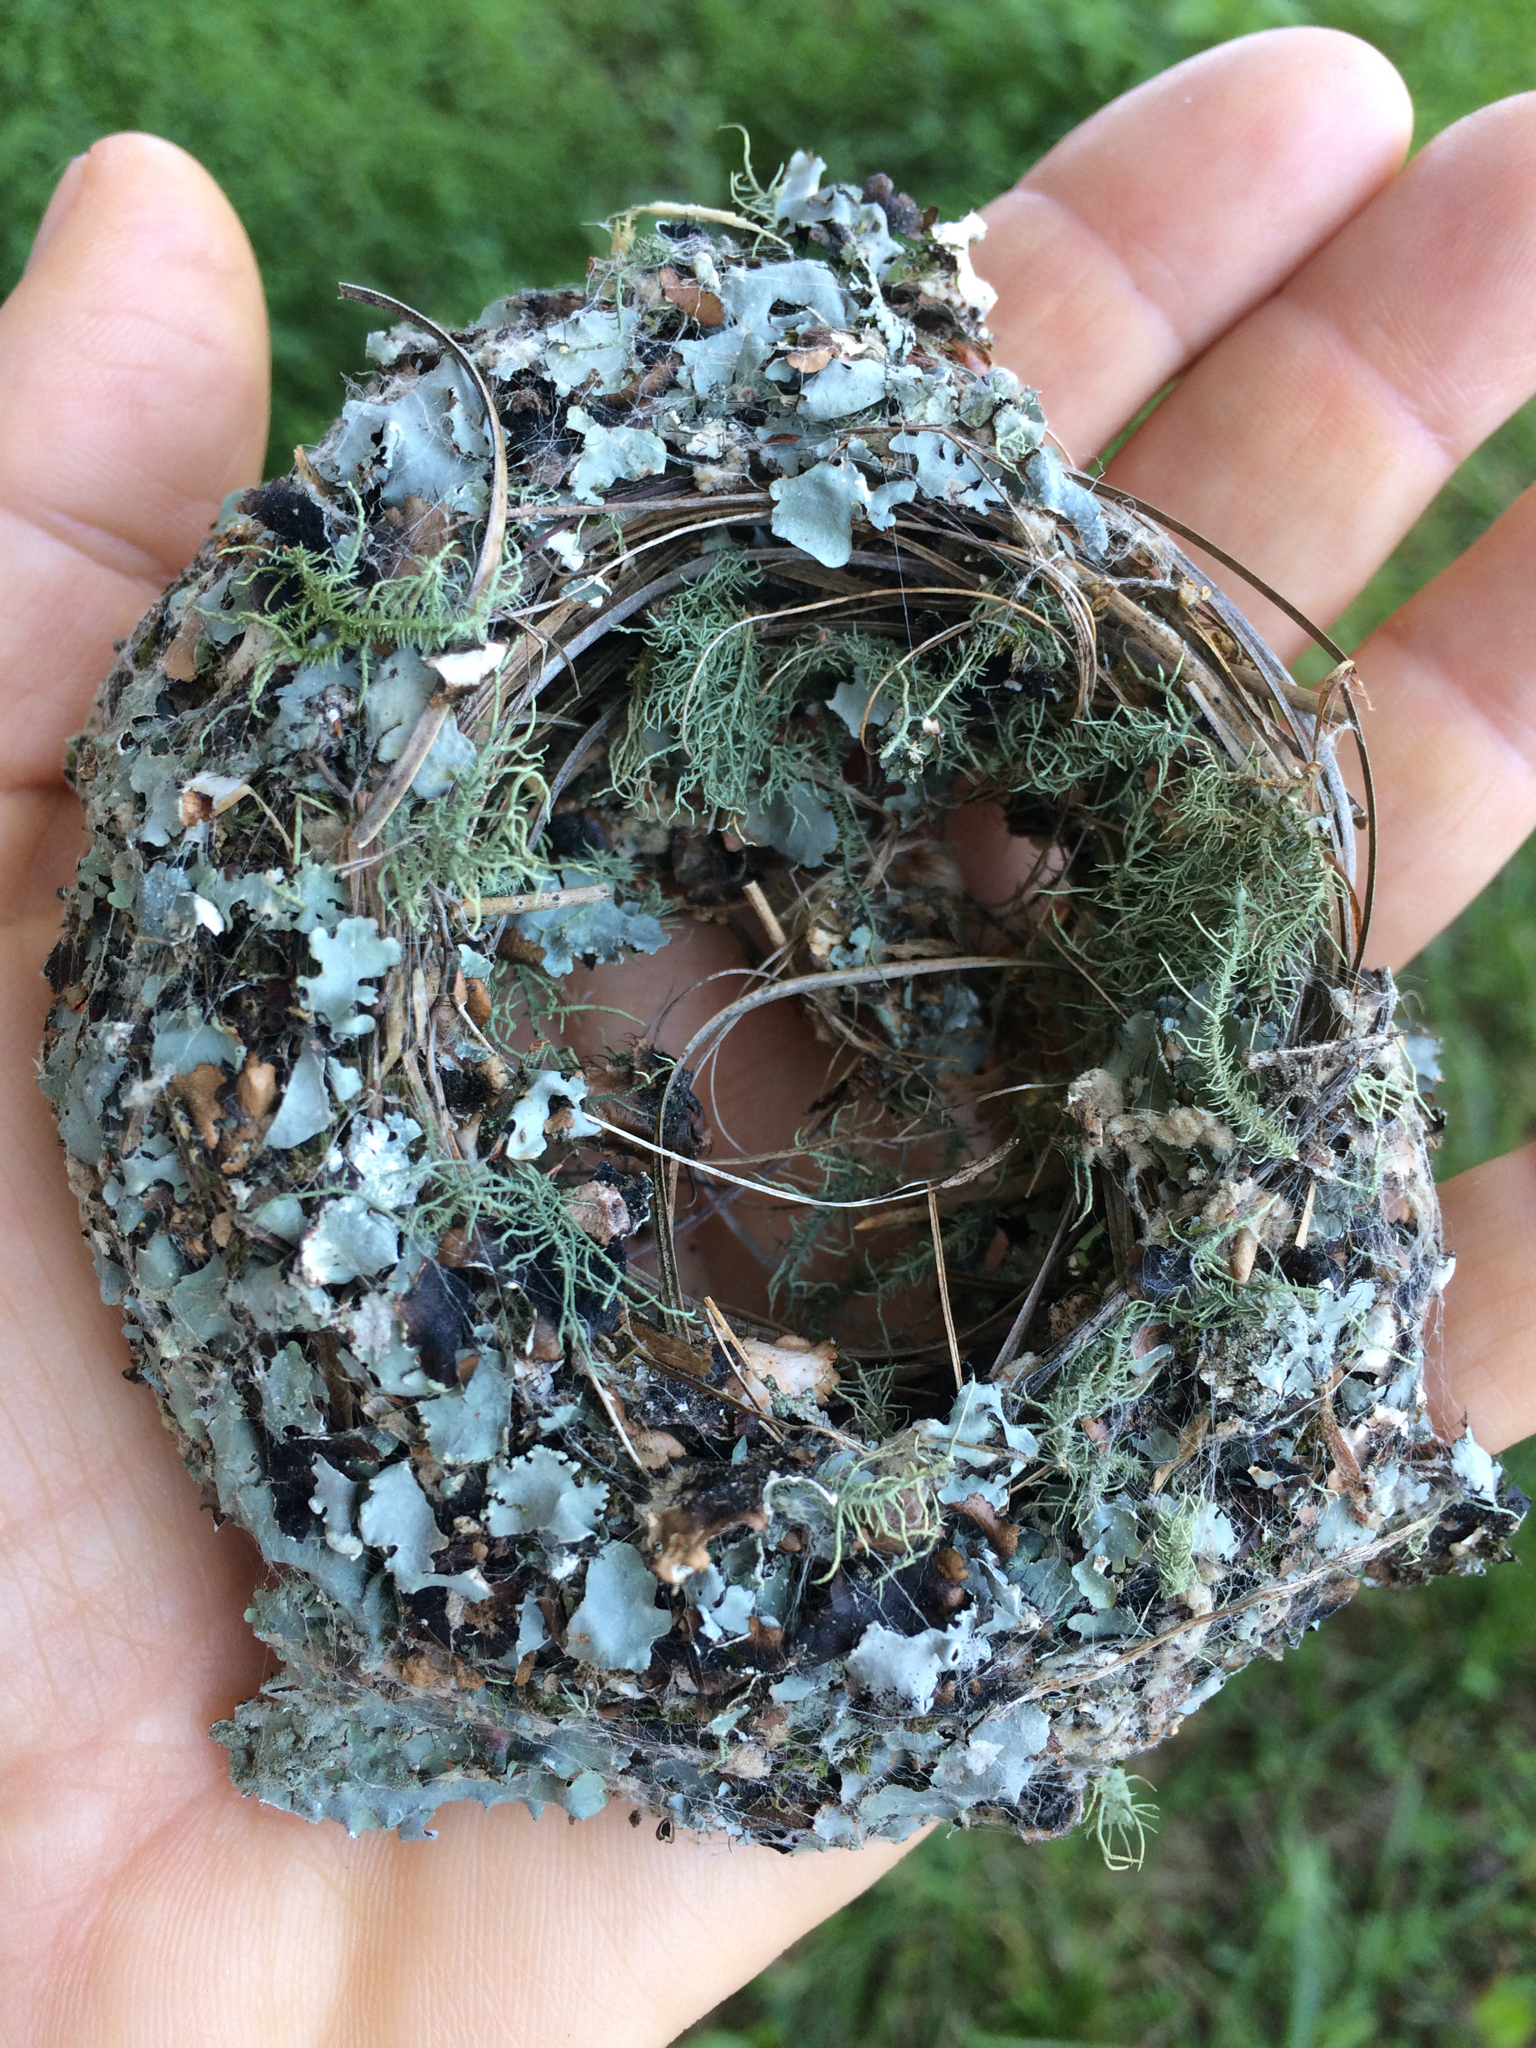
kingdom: Animalia
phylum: Chordata
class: Aves
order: Passeriformes
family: Polioptilidae
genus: Polioptila
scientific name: Polioptila caerulea
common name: Blue-gray gnatcatcher
